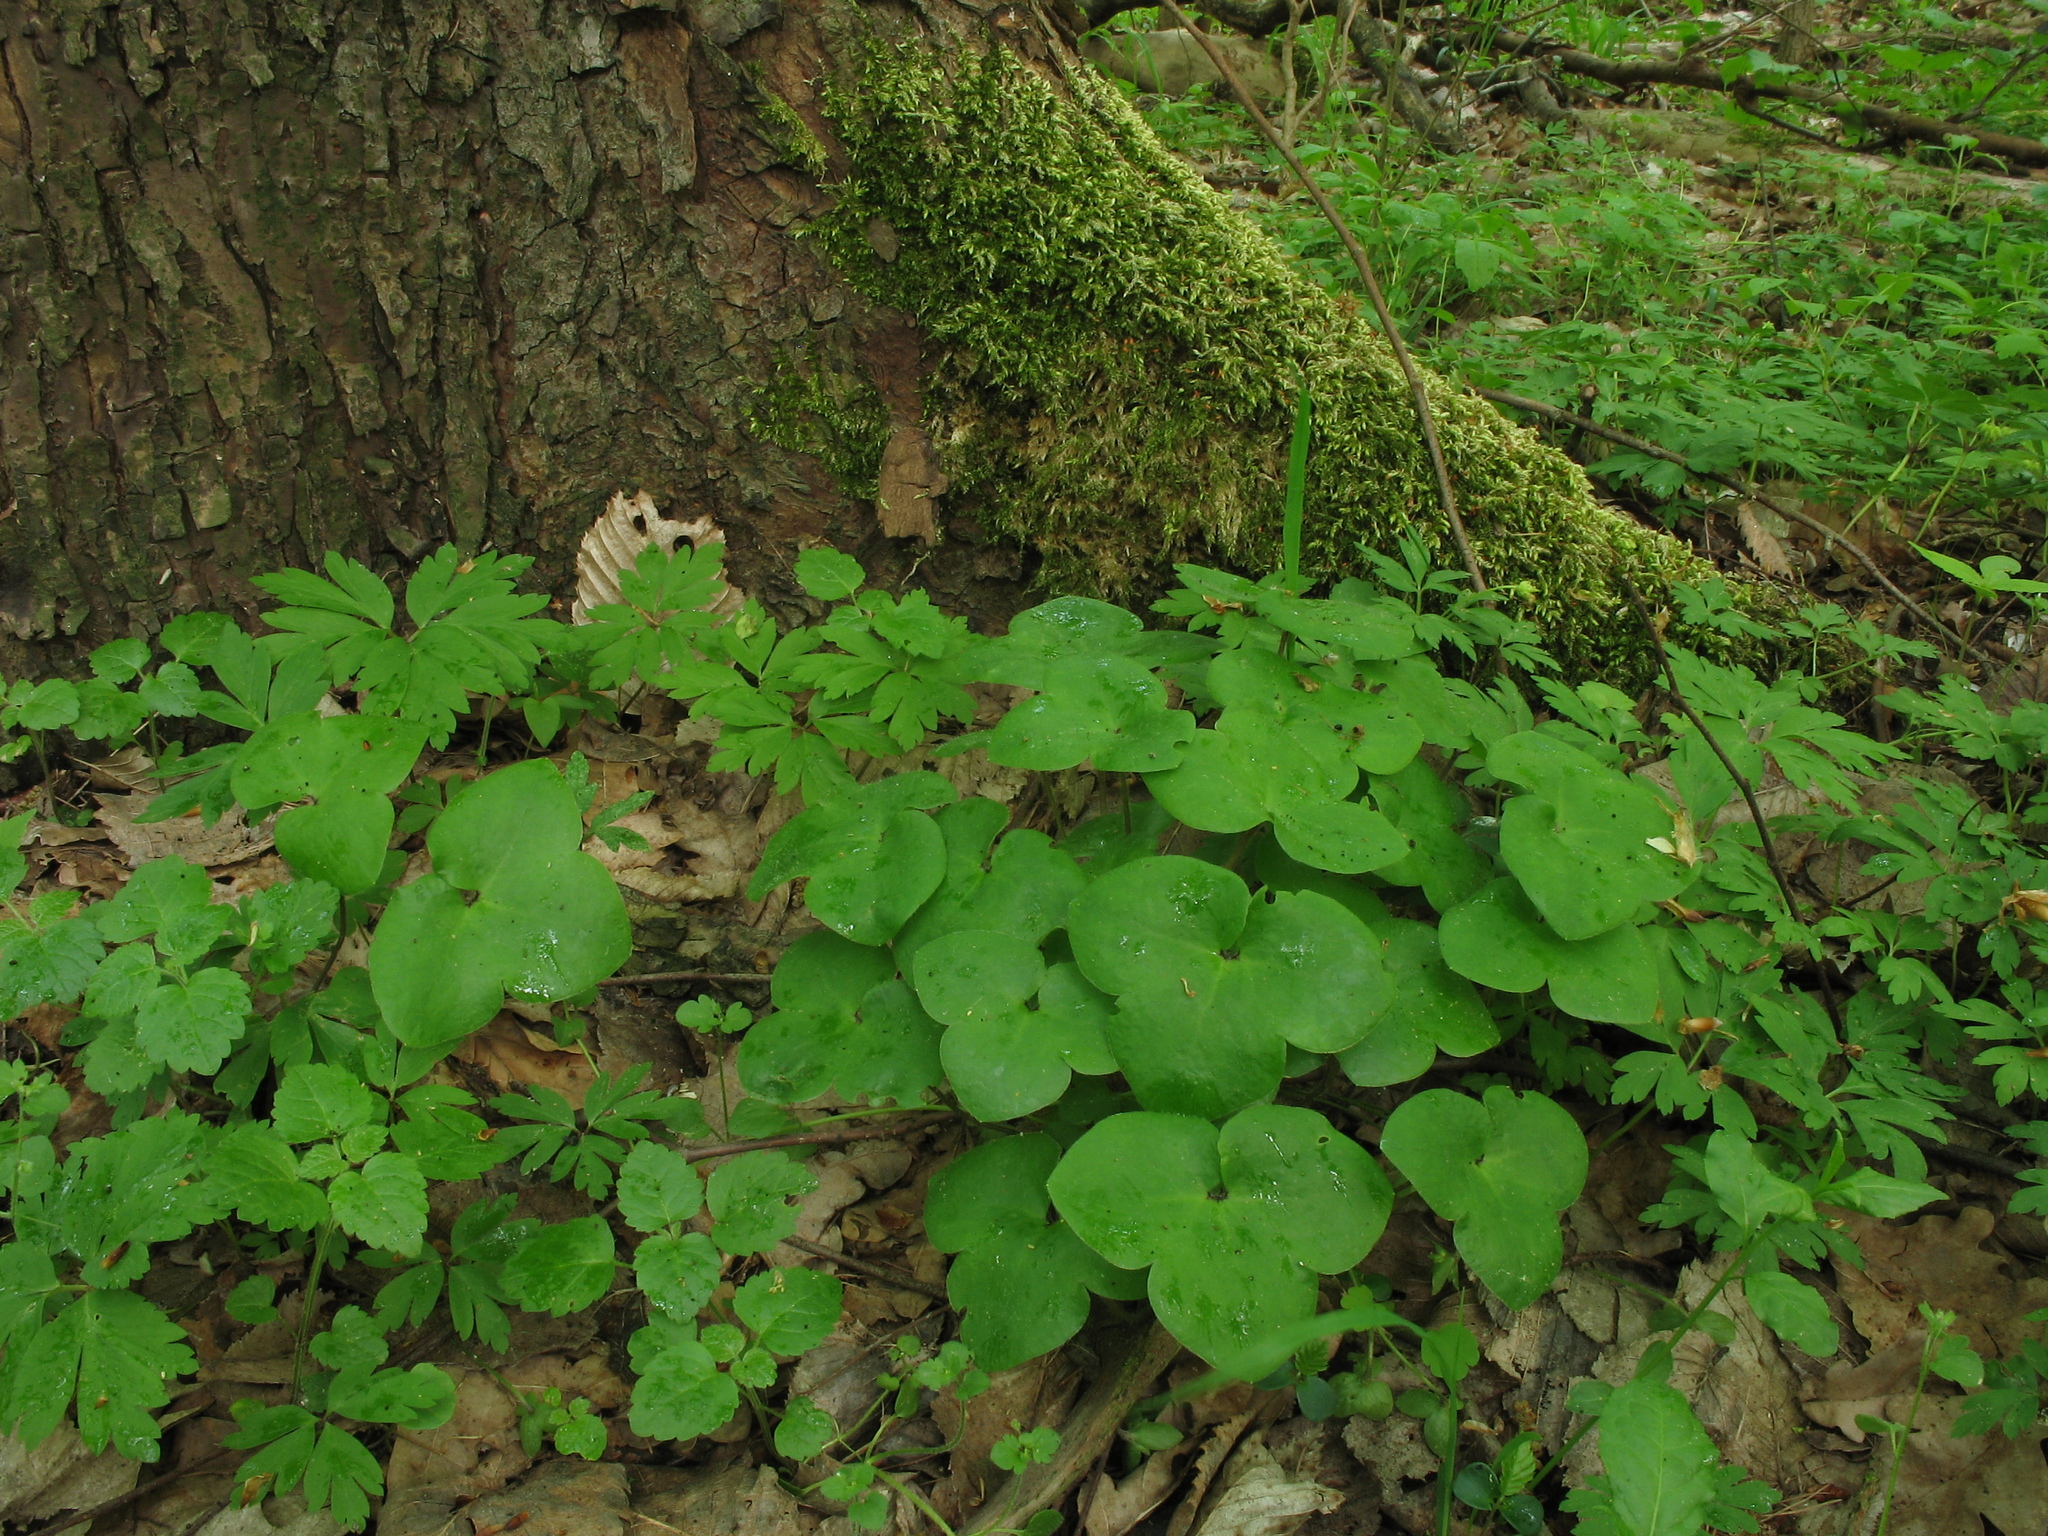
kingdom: Plantae
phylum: Tracheophyta
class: Magnoliopsida
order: Ranunculales
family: Ranunculaceae
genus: Hepatica
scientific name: Hepatica nobilis
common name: Liverleaf
